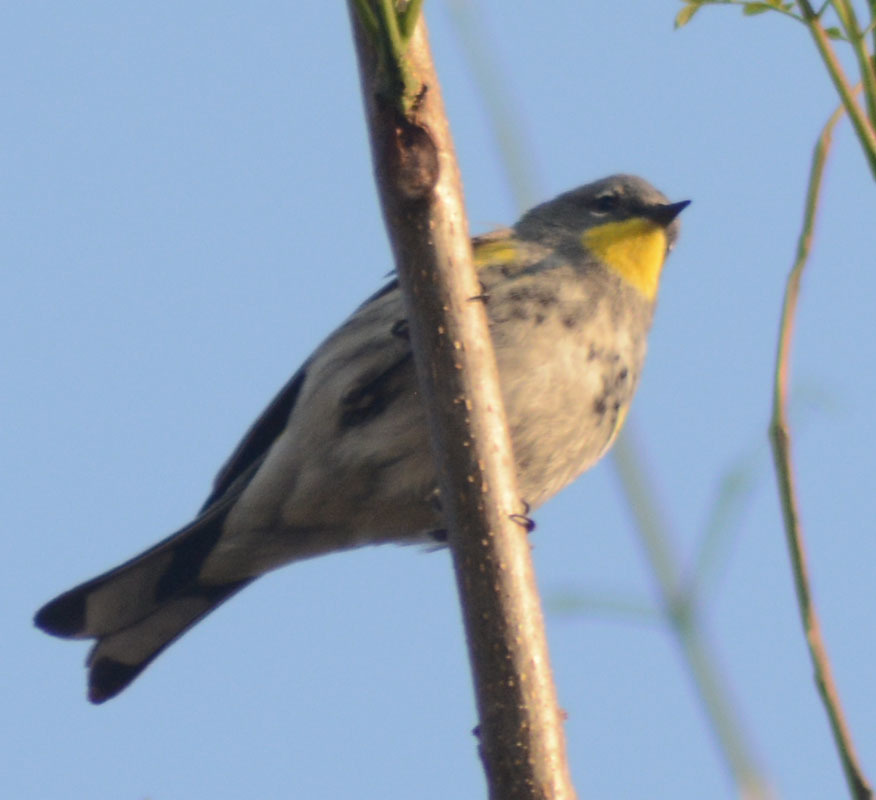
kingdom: Animalia
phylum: Chordata
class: Aves
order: Passeriformes
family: Parulidae
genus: Setophaga
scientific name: Setophaga auduboni
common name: Audubon's warbler
